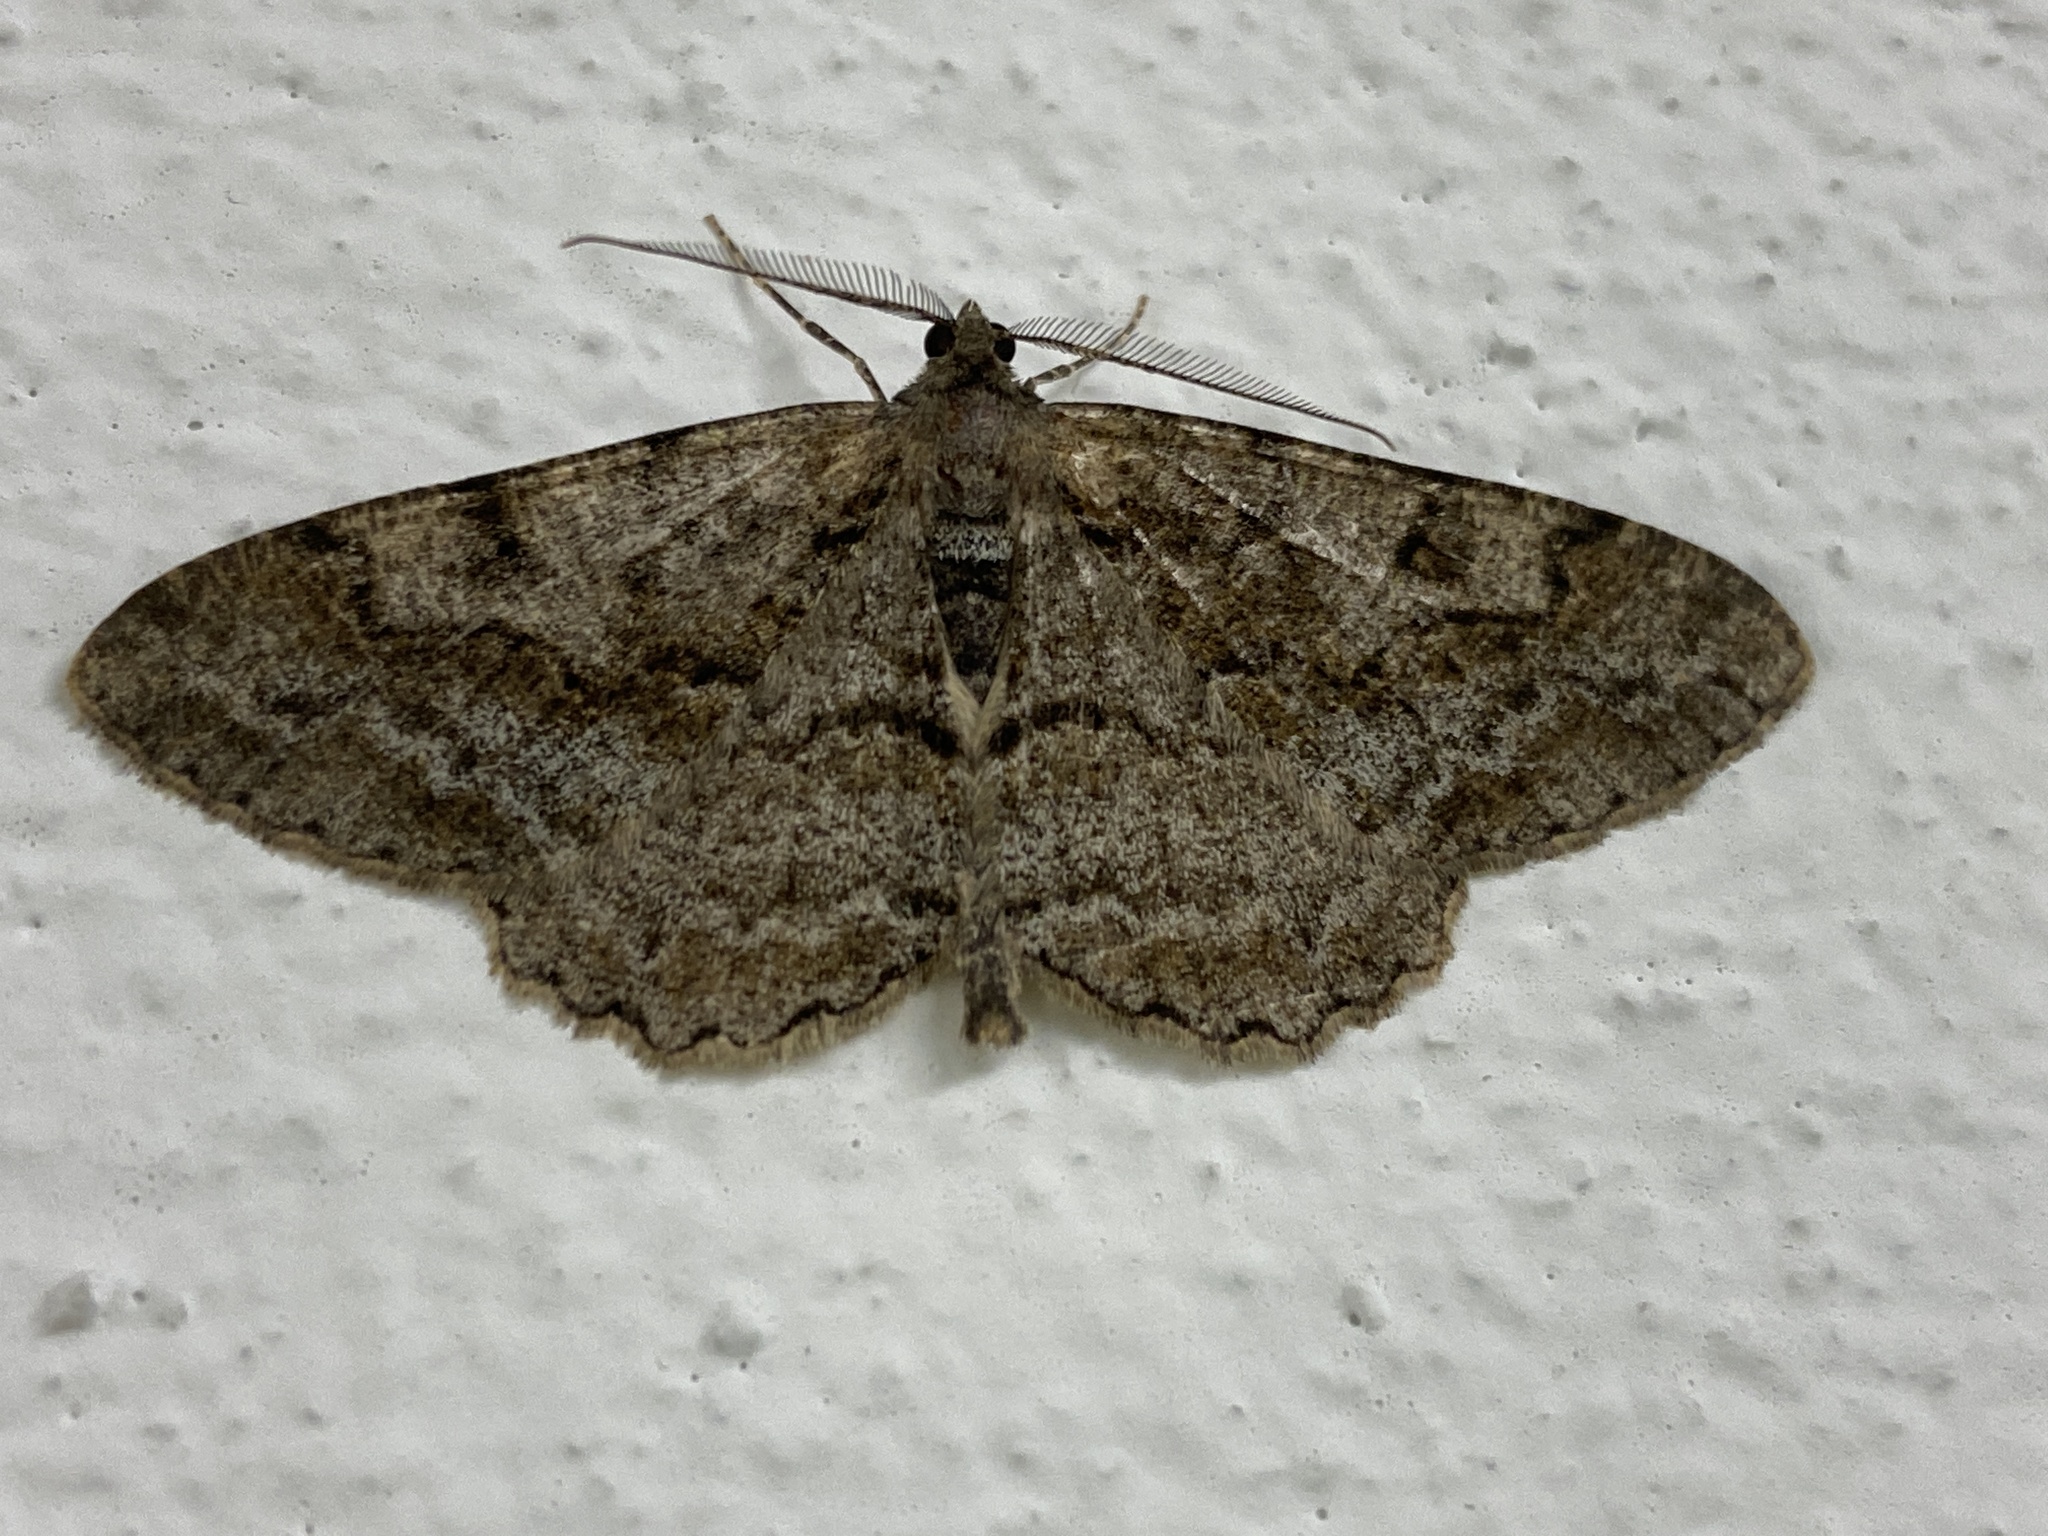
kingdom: Animalia
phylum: Arthropoda
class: Insecta
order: Lepidoptera
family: Geometridae
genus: Alcis
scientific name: Alcis repandata
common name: Mottled beauty
